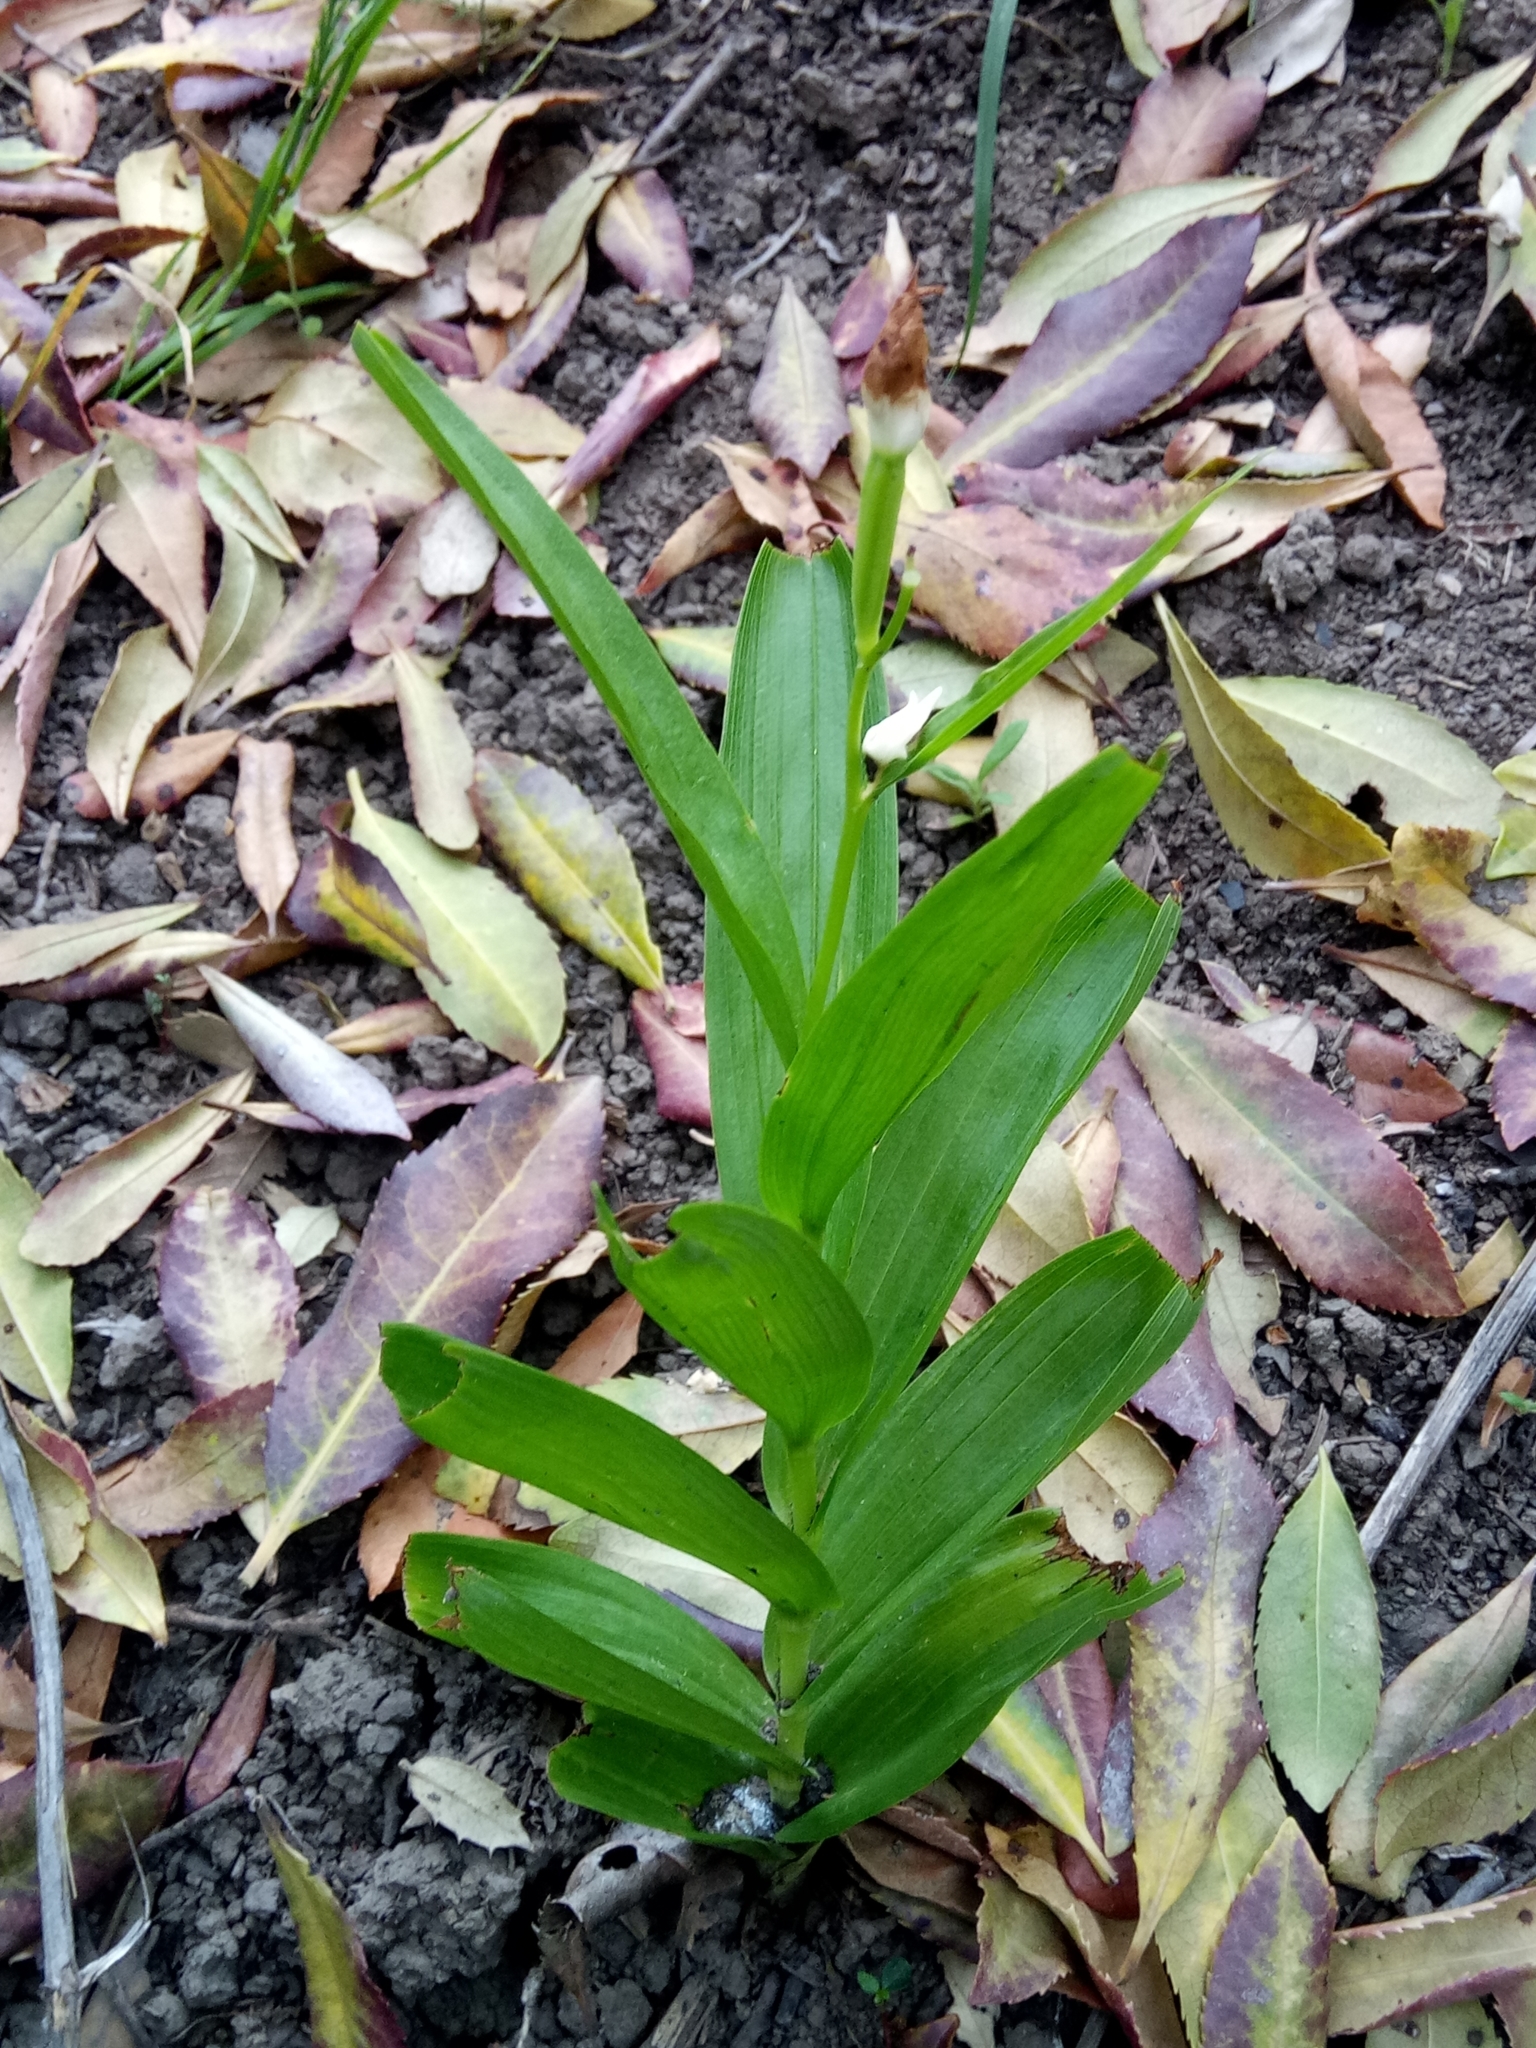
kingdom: Plantae
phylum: Tracheophyta
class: Liliopsida
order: Asparagales
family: Orchidaceae
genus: Cephalanthera
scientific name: Cephalanthera longifolia
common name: Narrow-leaved helleborine
